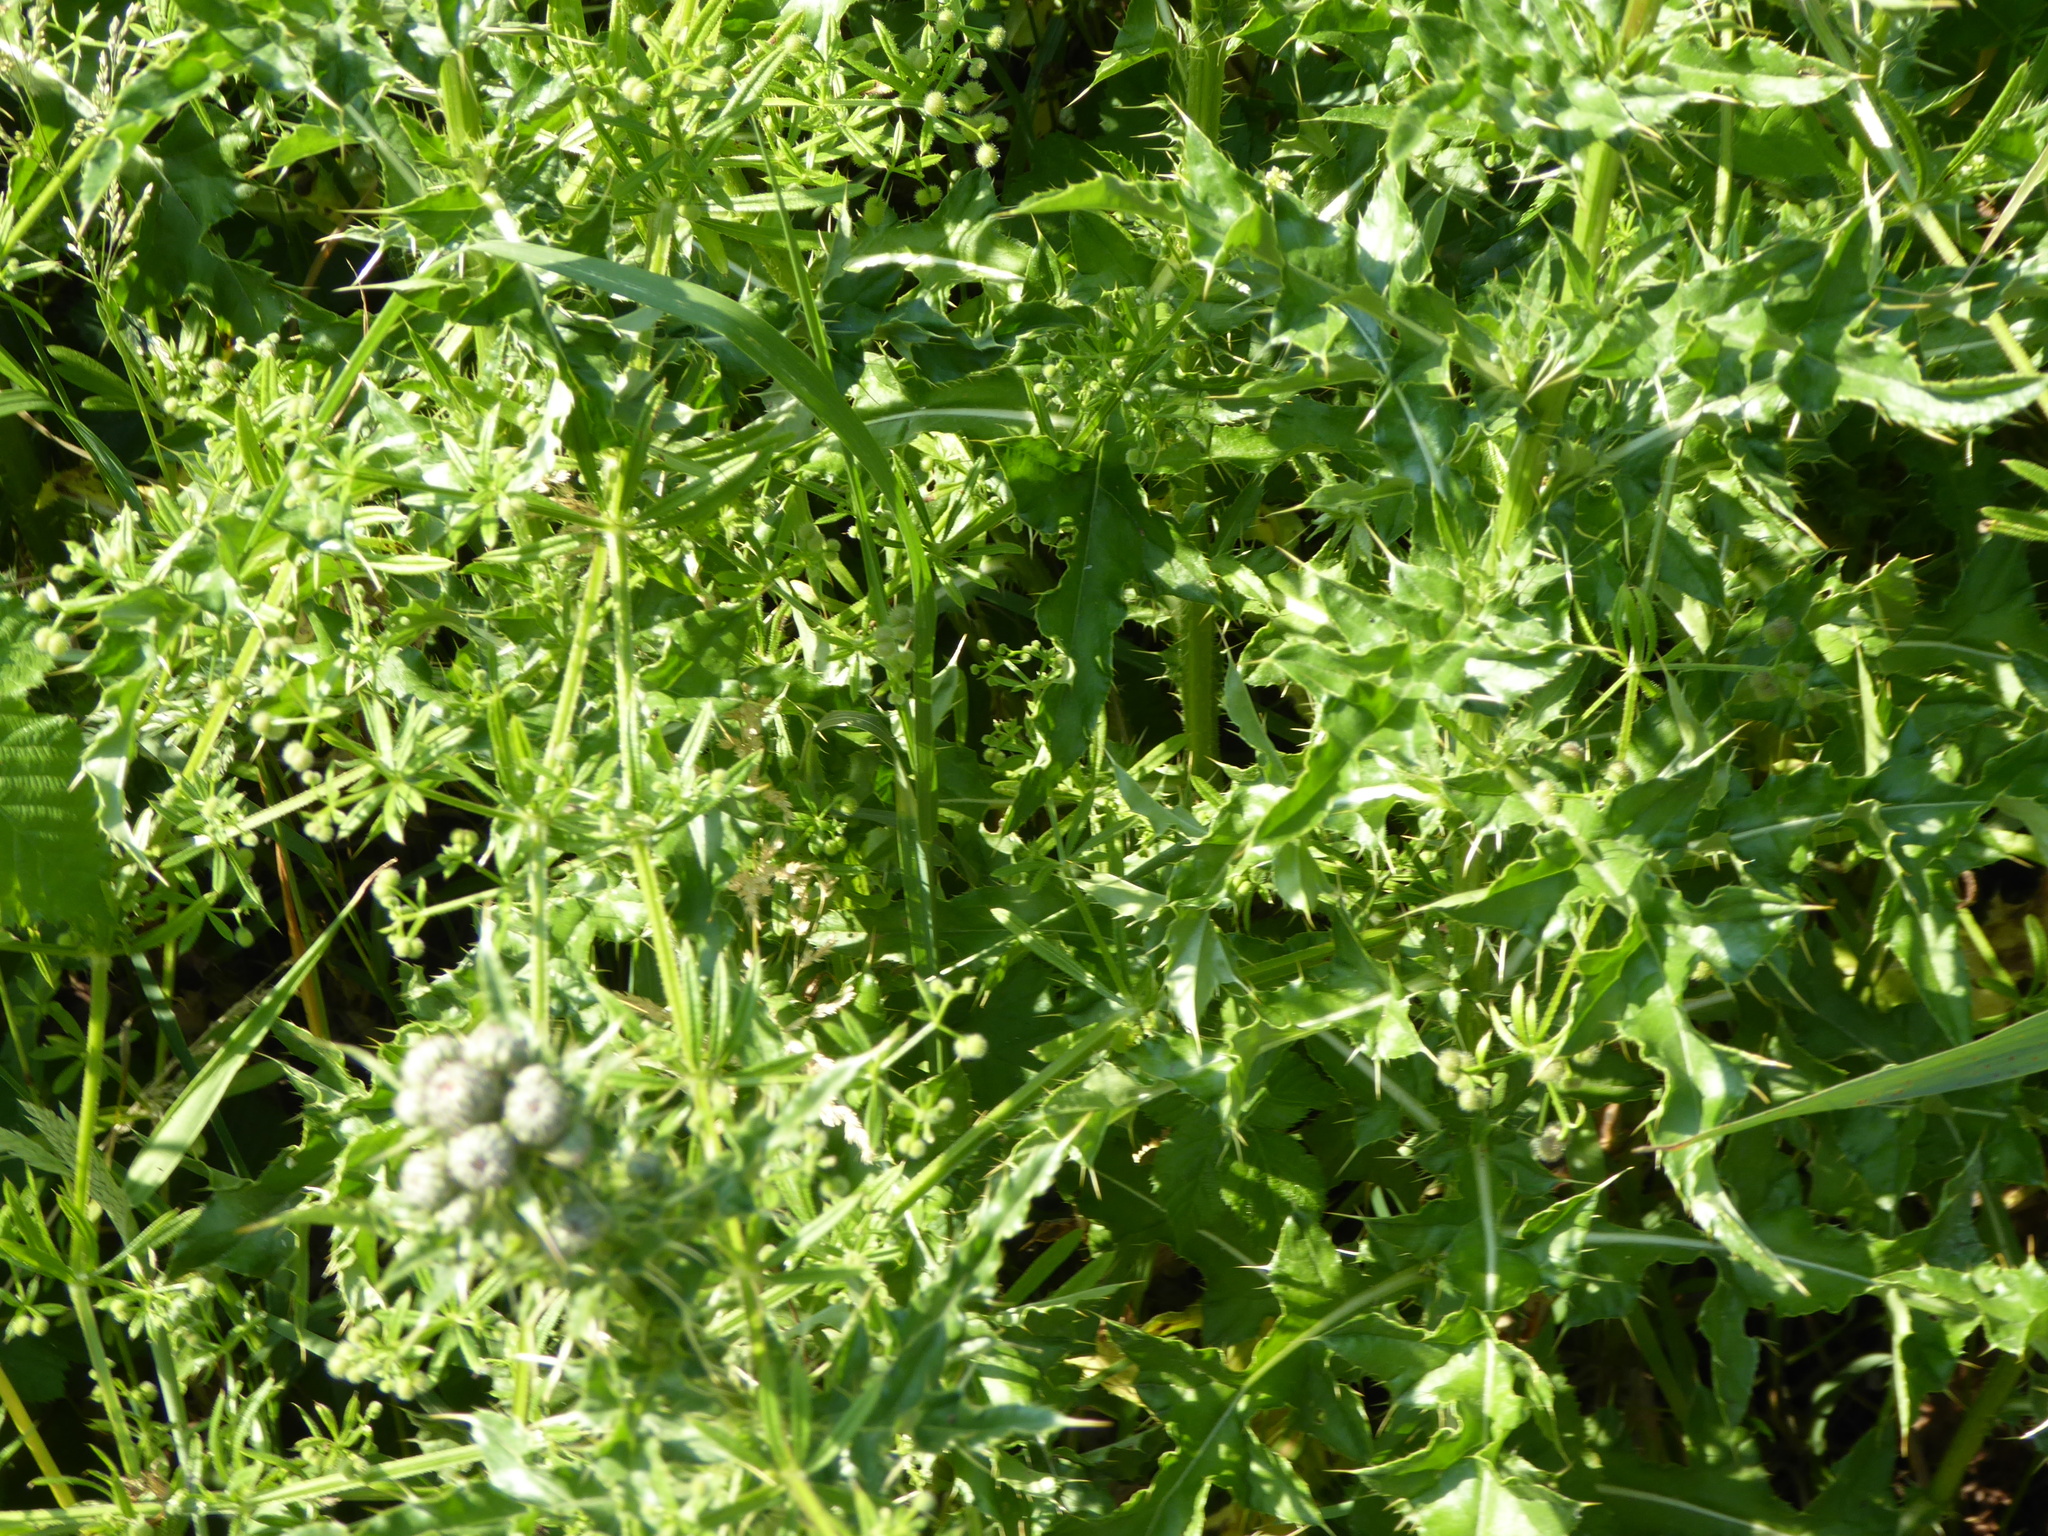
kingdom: Plantae
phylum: Tracheophyta
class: Magnoliopsida
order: Asterales
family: Asteraceae
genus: Cirsium
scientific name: Cirsium arvense
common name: Creeping thistle
